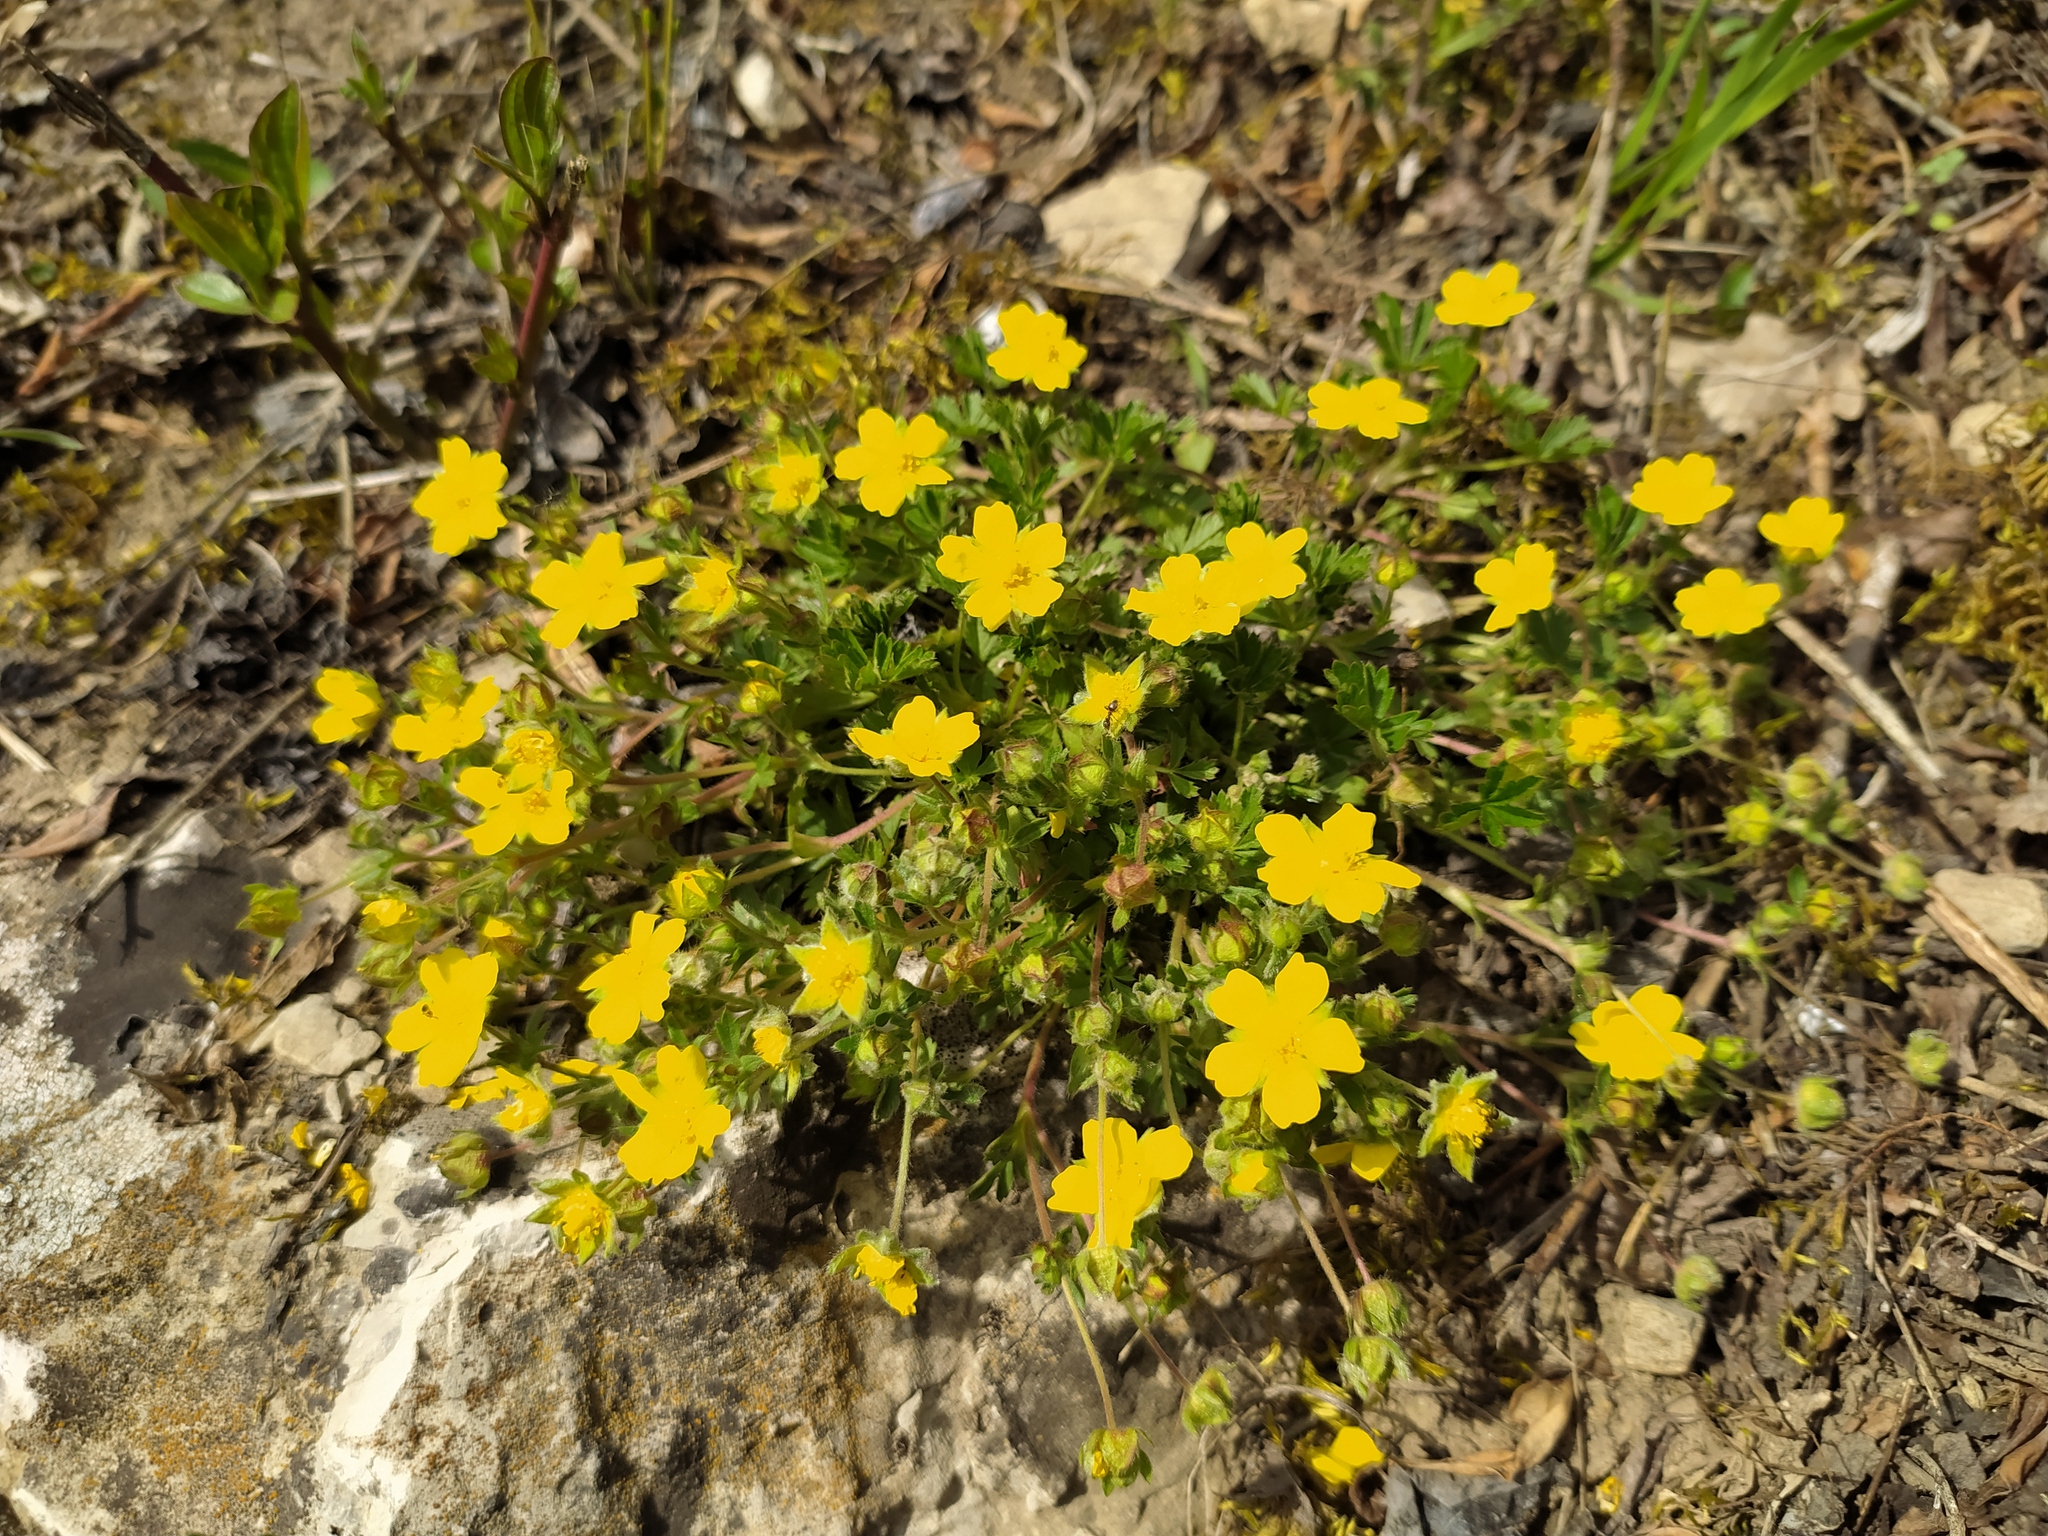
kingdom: Plantae
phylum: Tracheophyta
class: Magnoliopsida
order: Rosales
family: Rosaceae
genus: Potentilla
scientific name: Potentilla verna
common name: Spring cinquefoil
